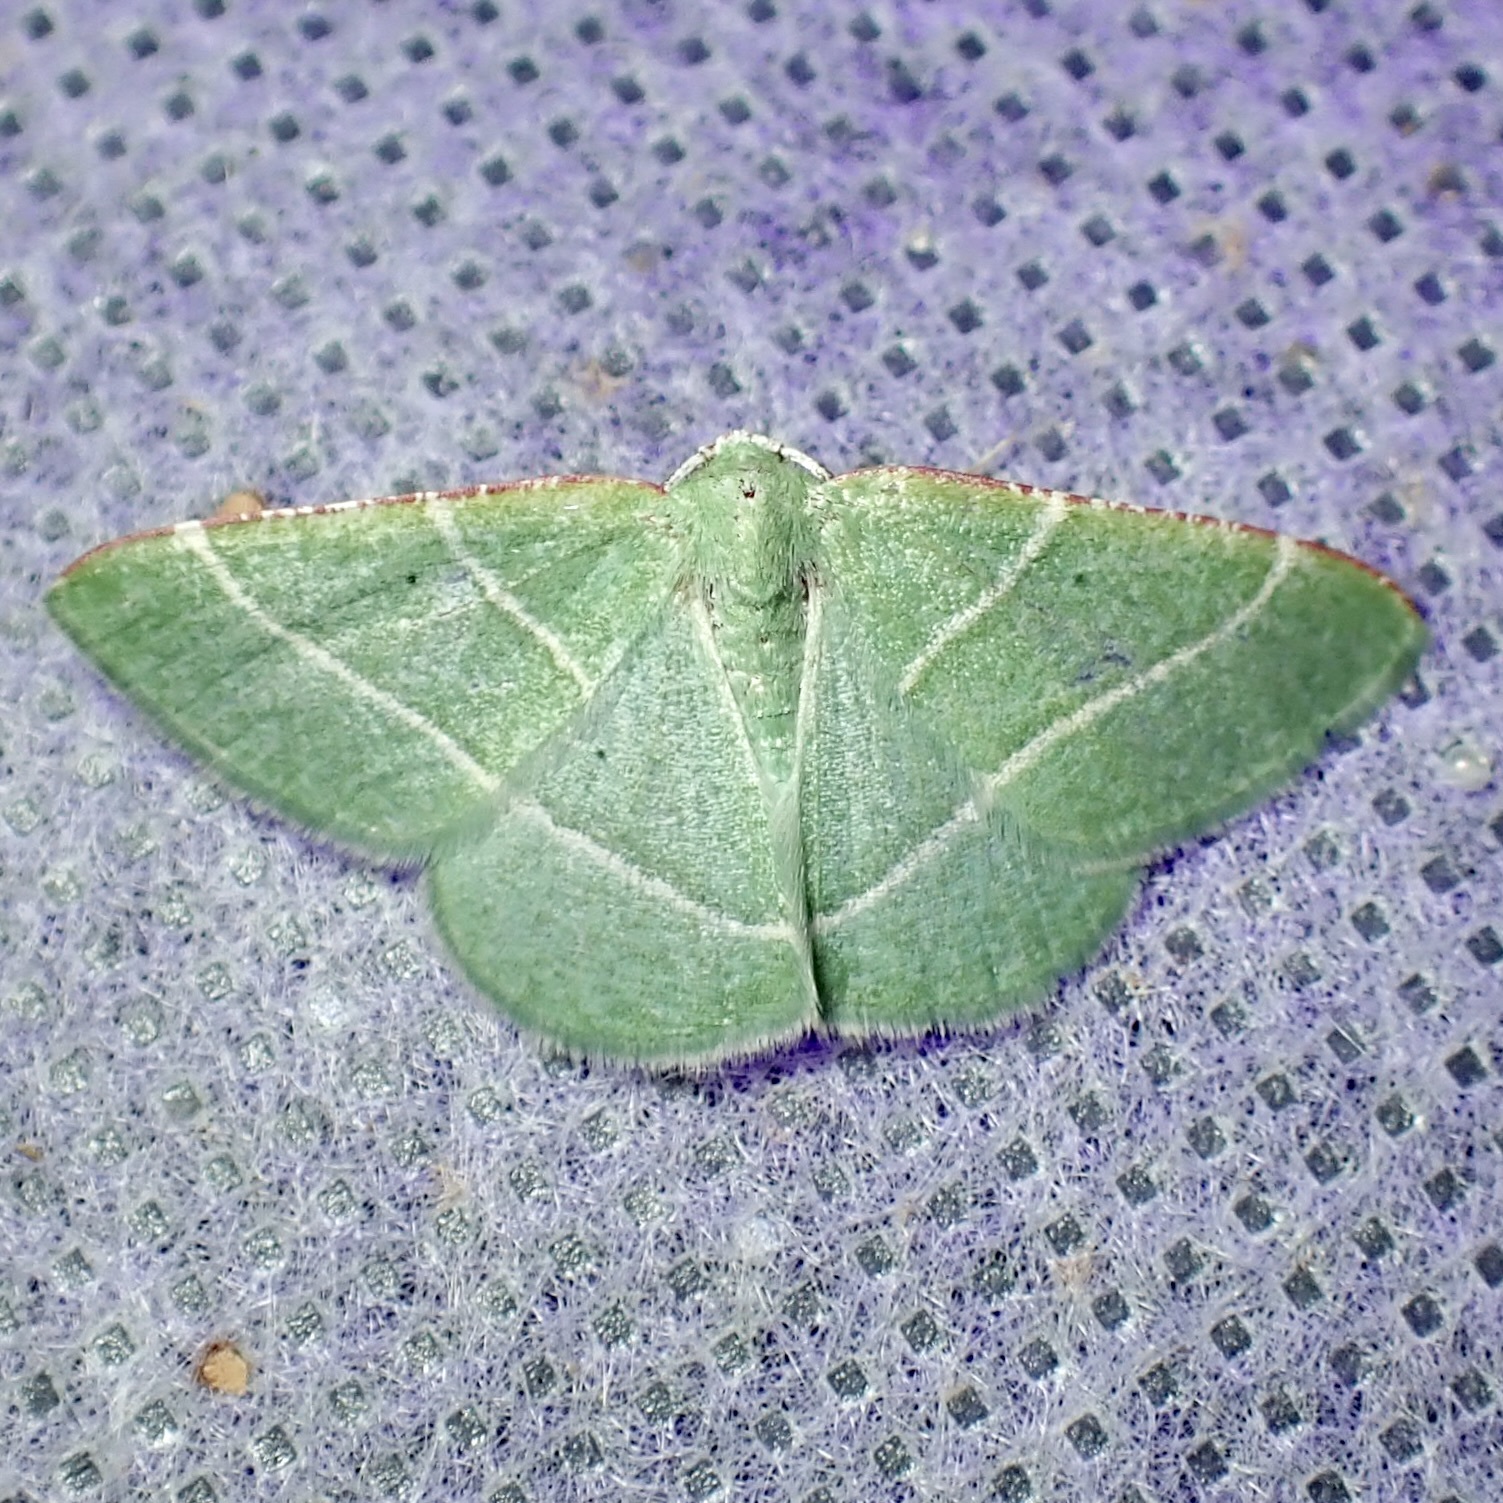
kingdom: Animalia
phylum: Arthropoda
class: Insecta
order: Lepidoptera
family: Geometridae
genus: Dichordophora
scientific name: Dichordophora phoenix
